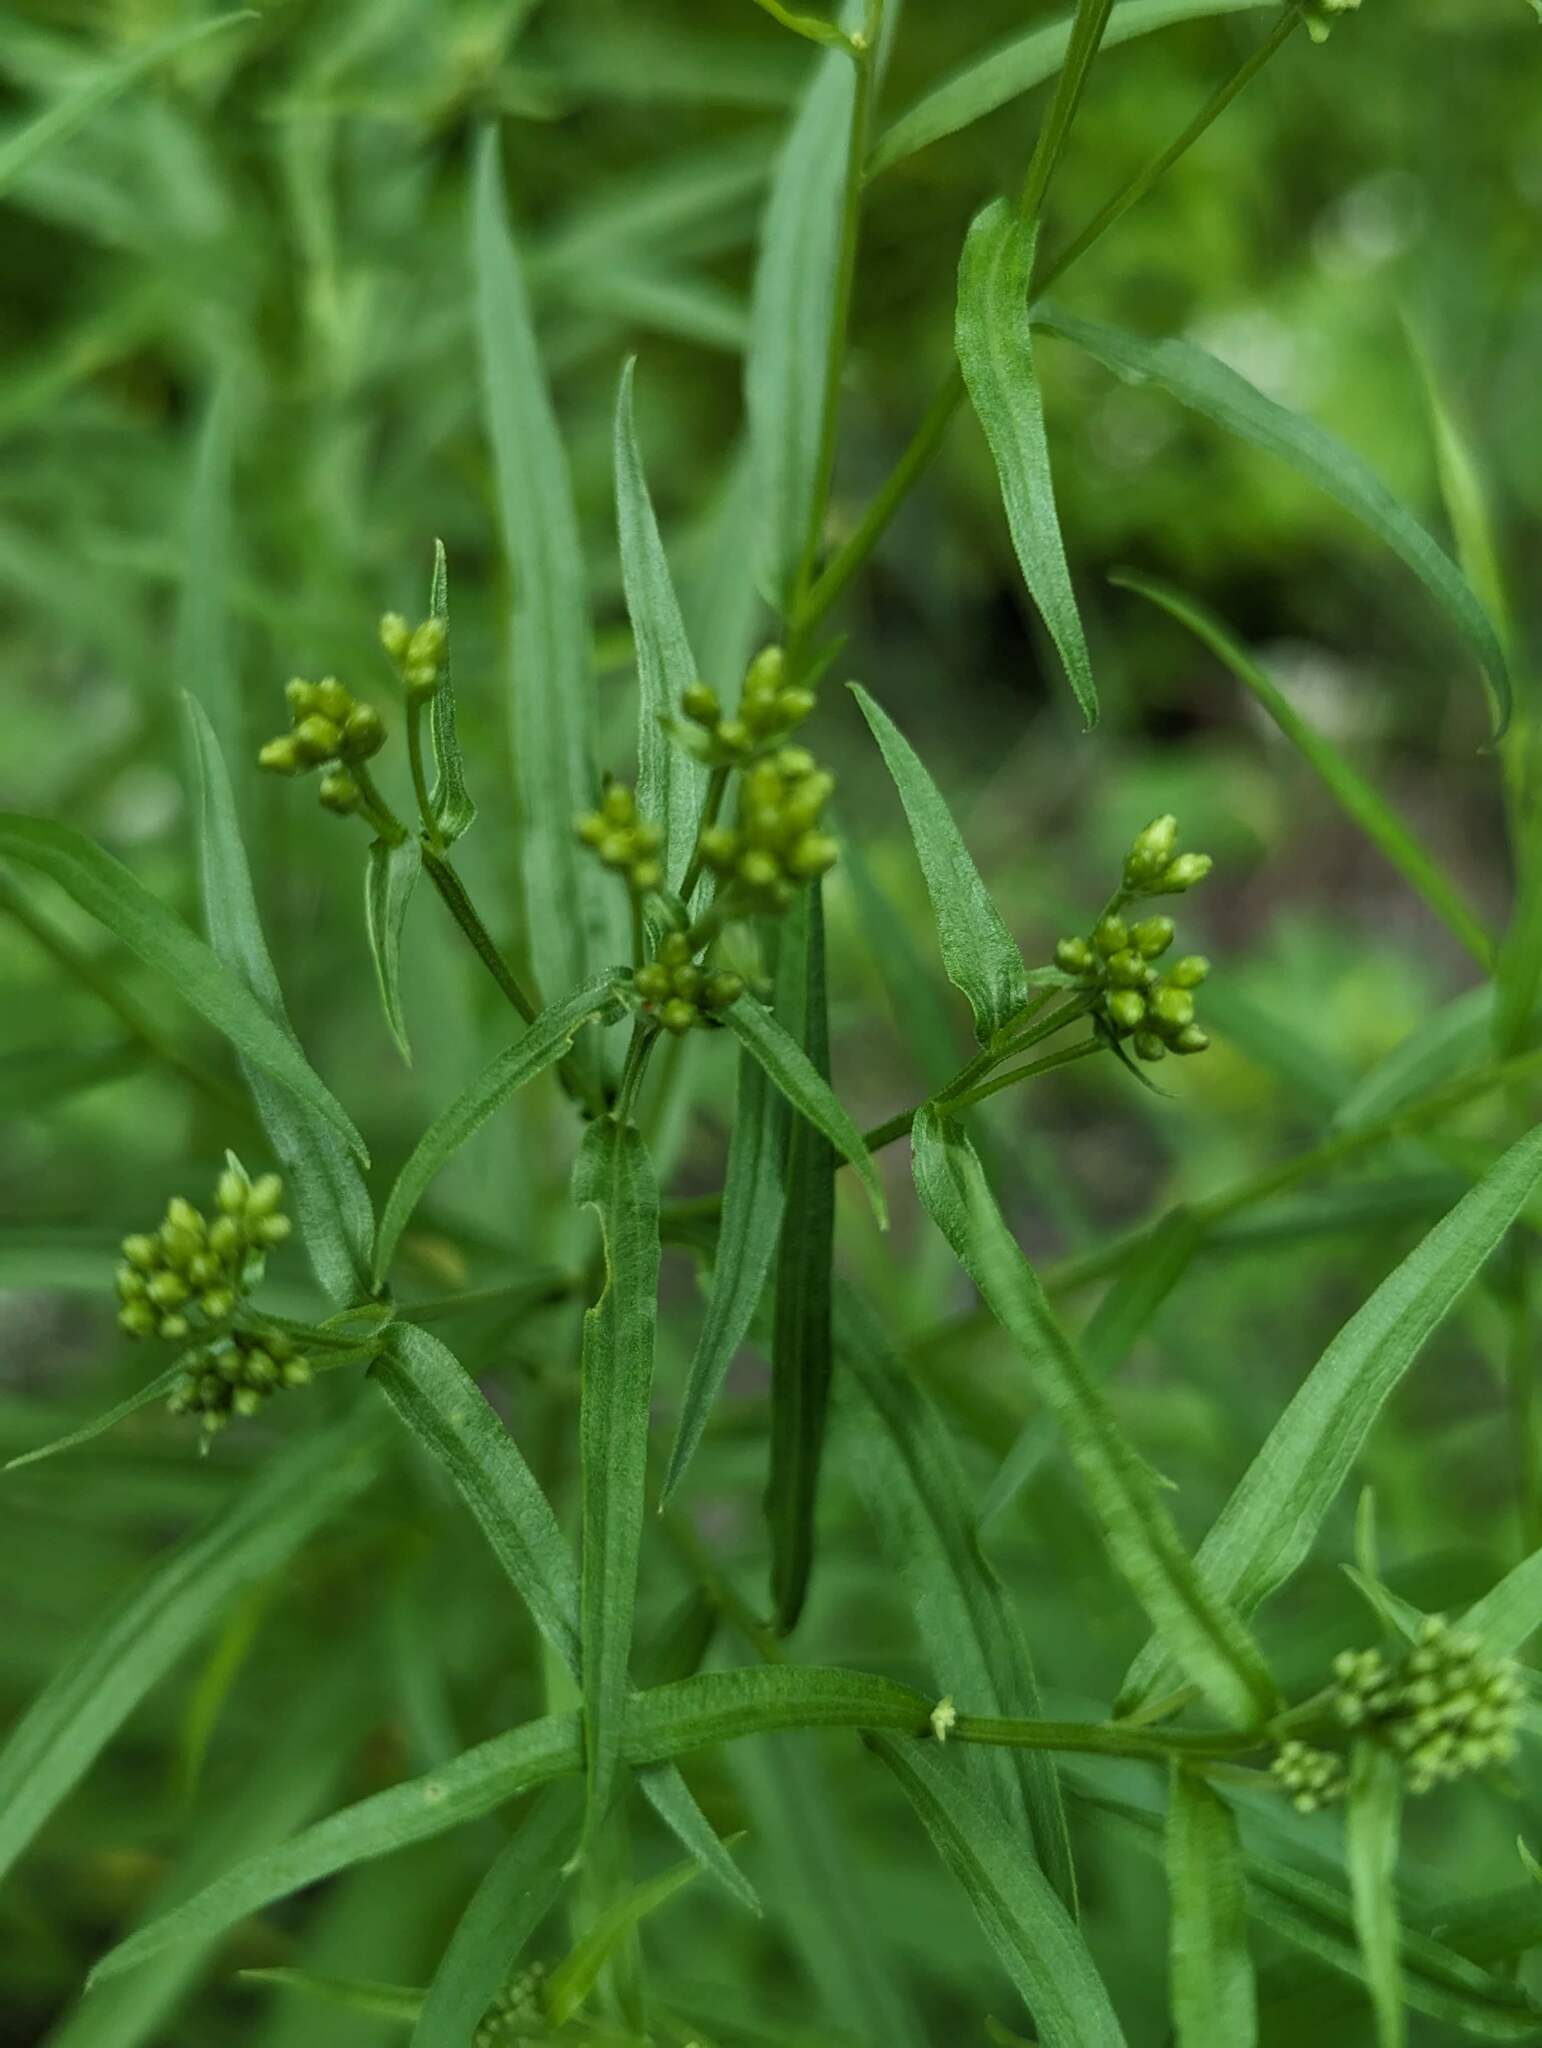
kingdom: Plantae
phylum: Tracheophyta
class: Magnoliopsida
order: Asterales
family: Asteraceae
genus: Euthamia
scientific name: Euthamia graminifolia
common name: Common goldentop
